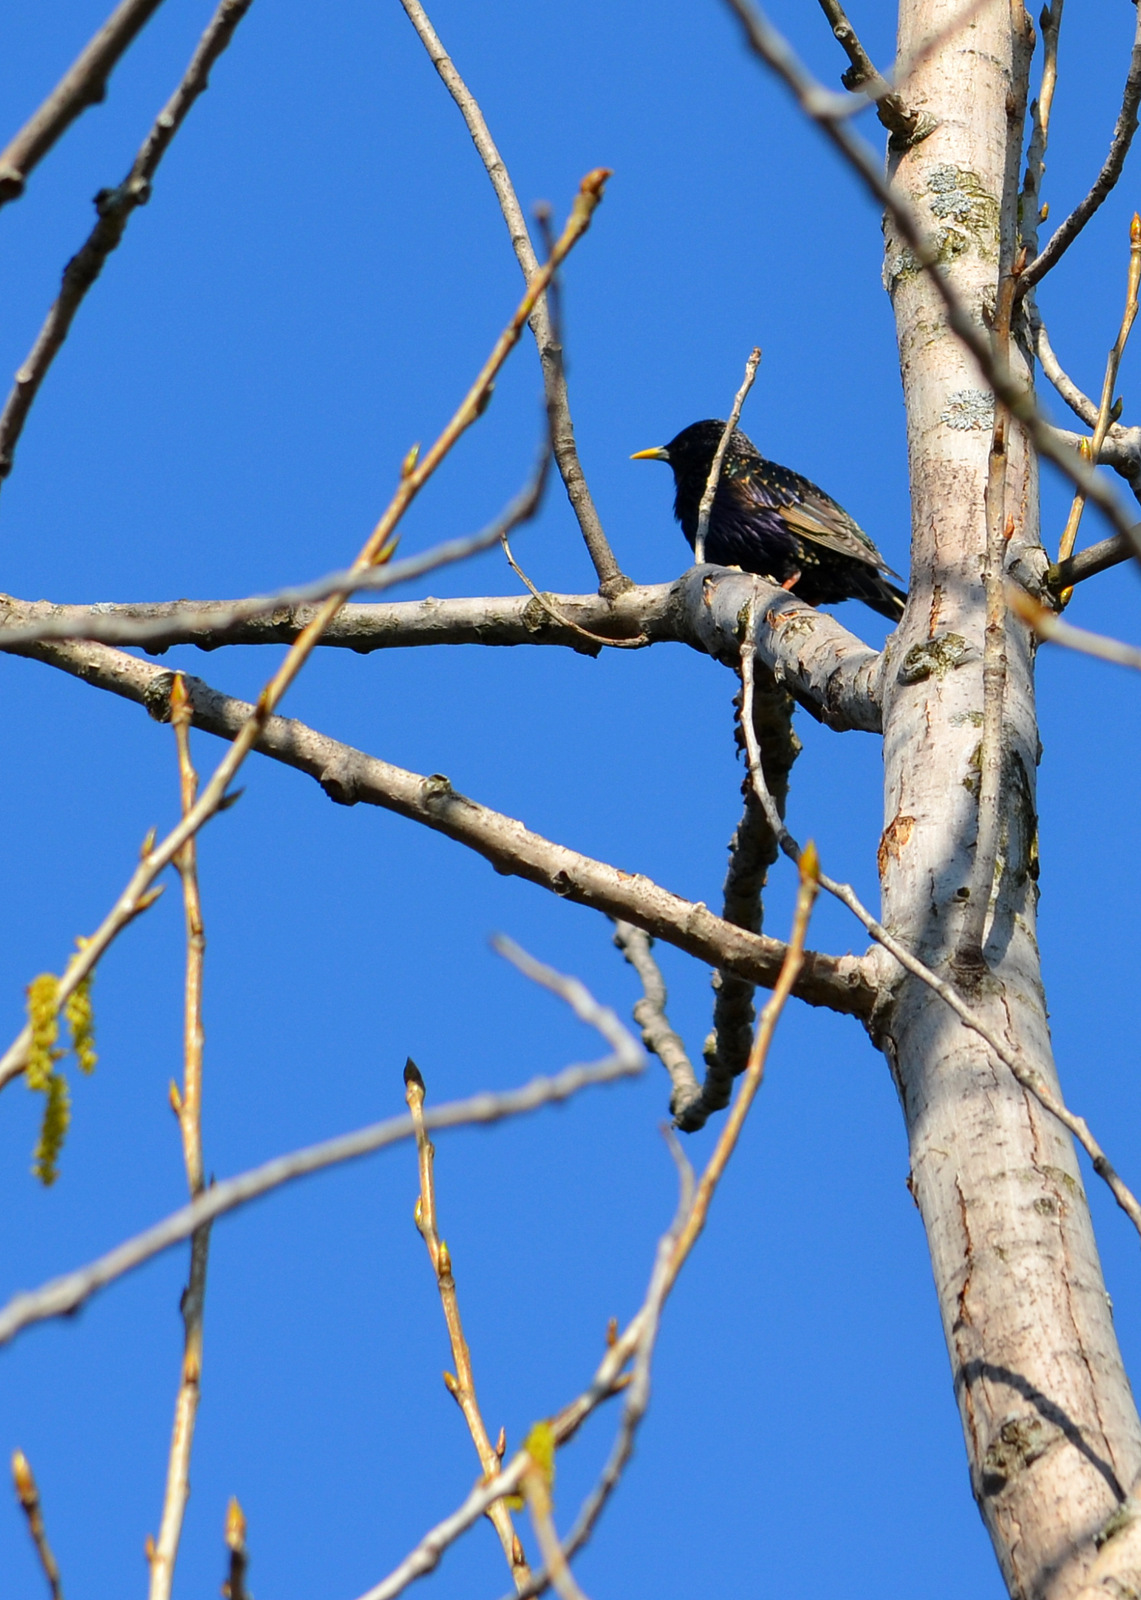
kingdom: Animalia
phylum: Chordata
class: Aves
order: Passeriformes
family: Sturnidae
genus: Sturnus
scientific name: Sturnus vulgaris
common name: Common starling
